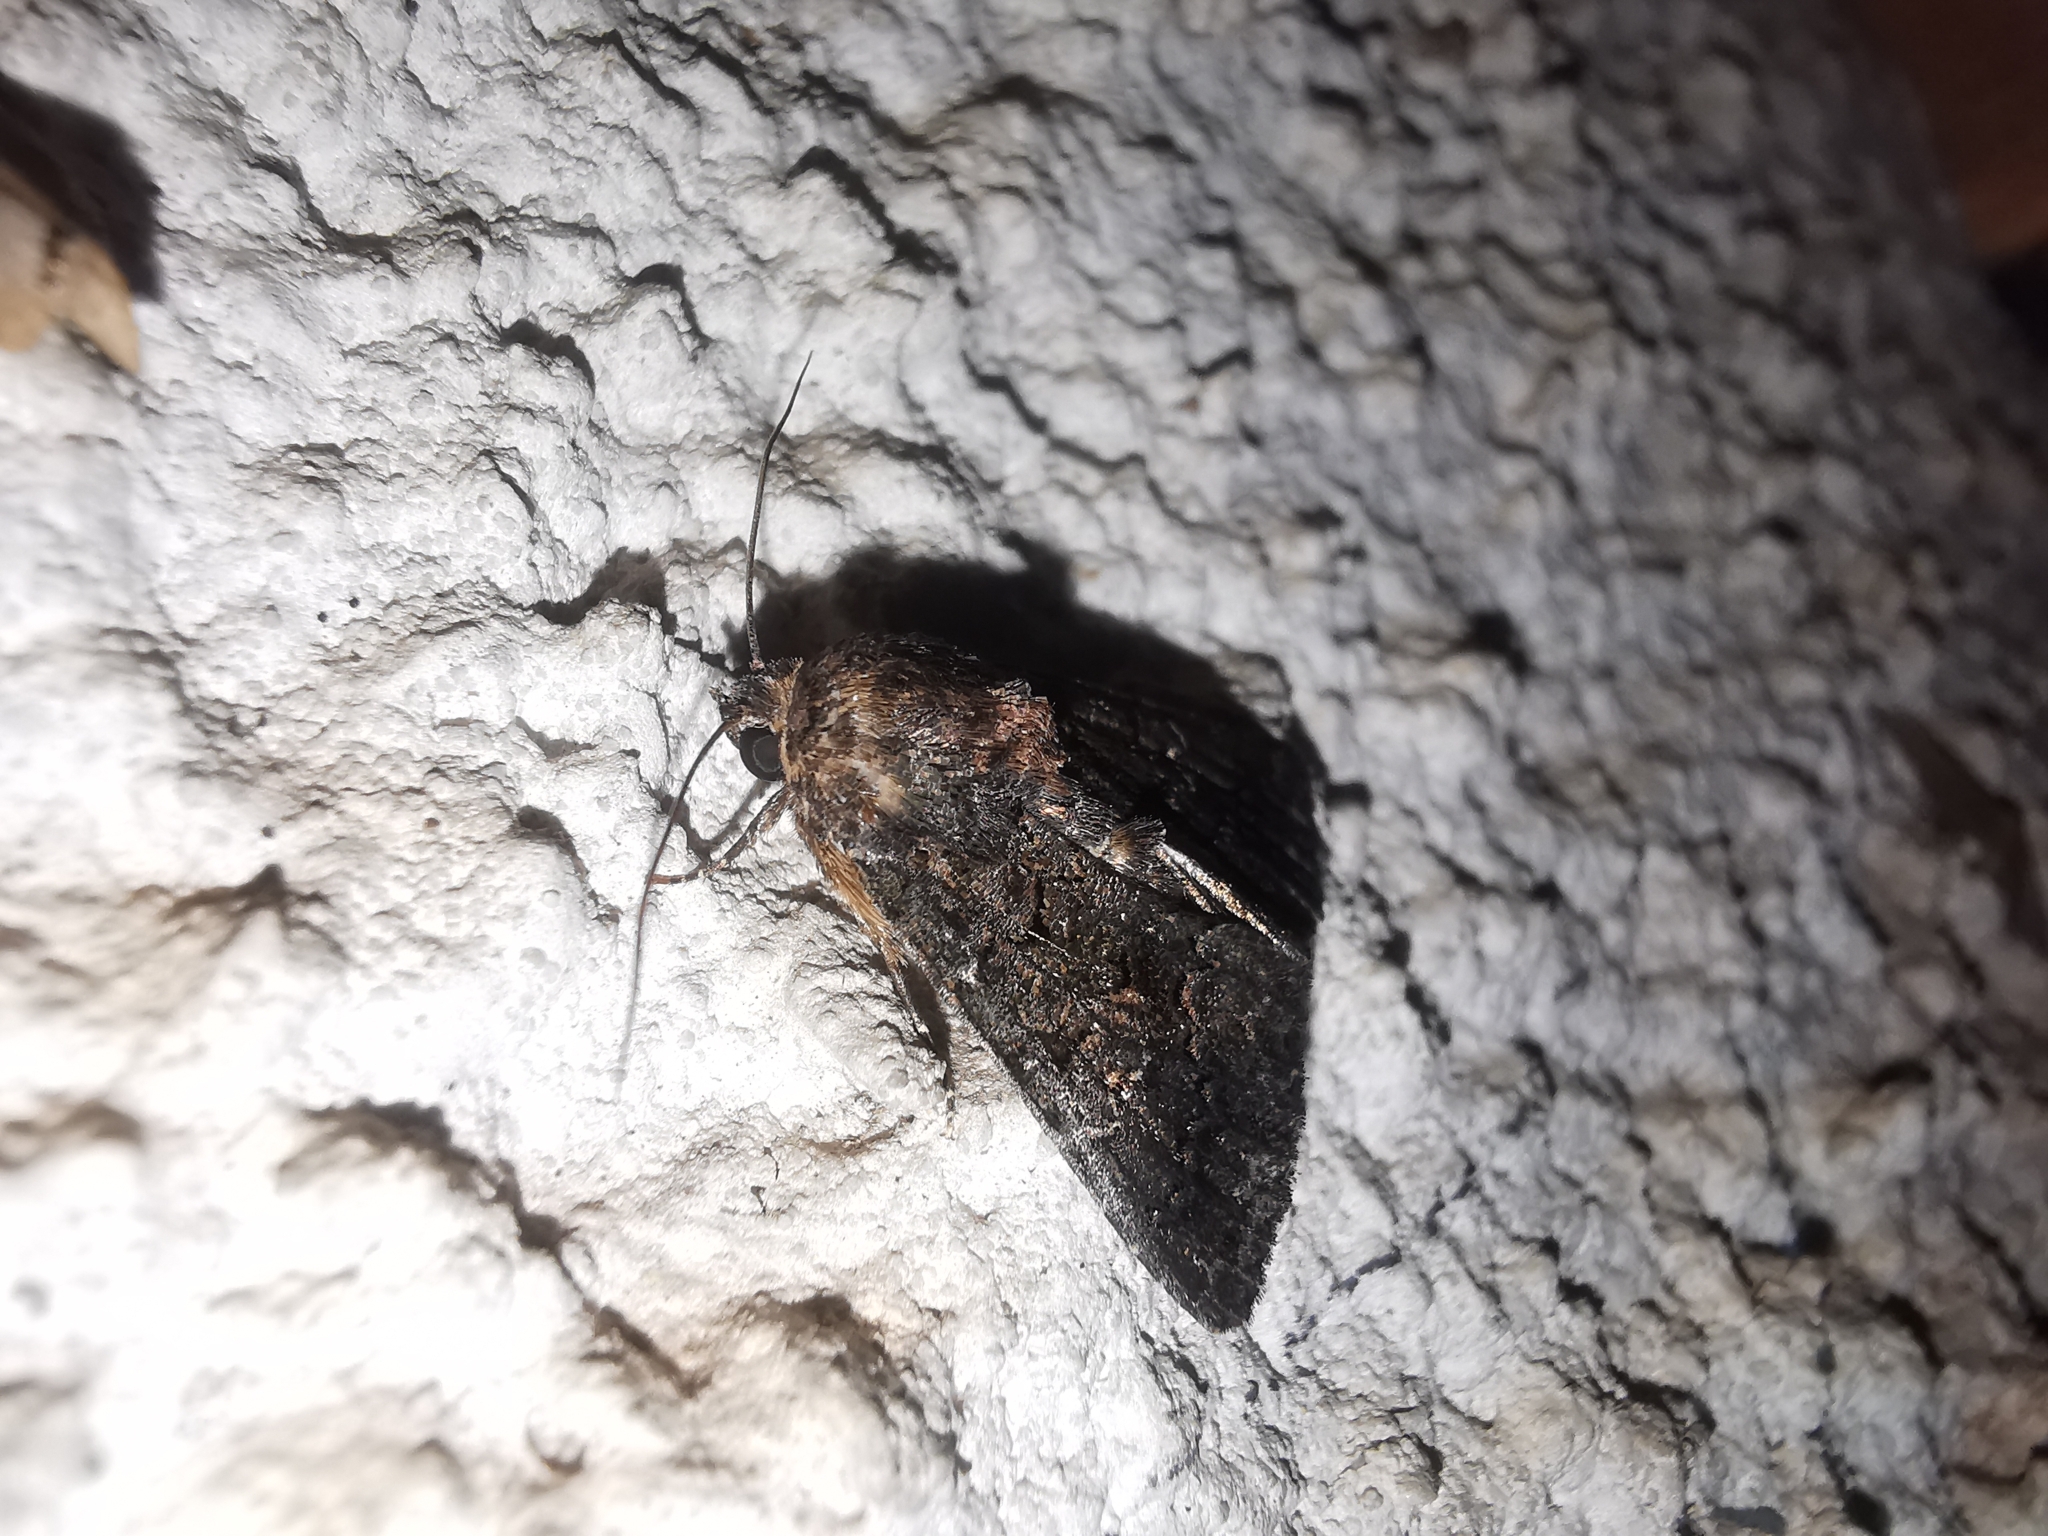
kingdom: Animalia
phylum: Arthropoda
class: Insecta
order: Lepidoptera
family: Noctuidae
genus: Aedia
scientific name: Aedia leucomelas
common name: Sorcerer
